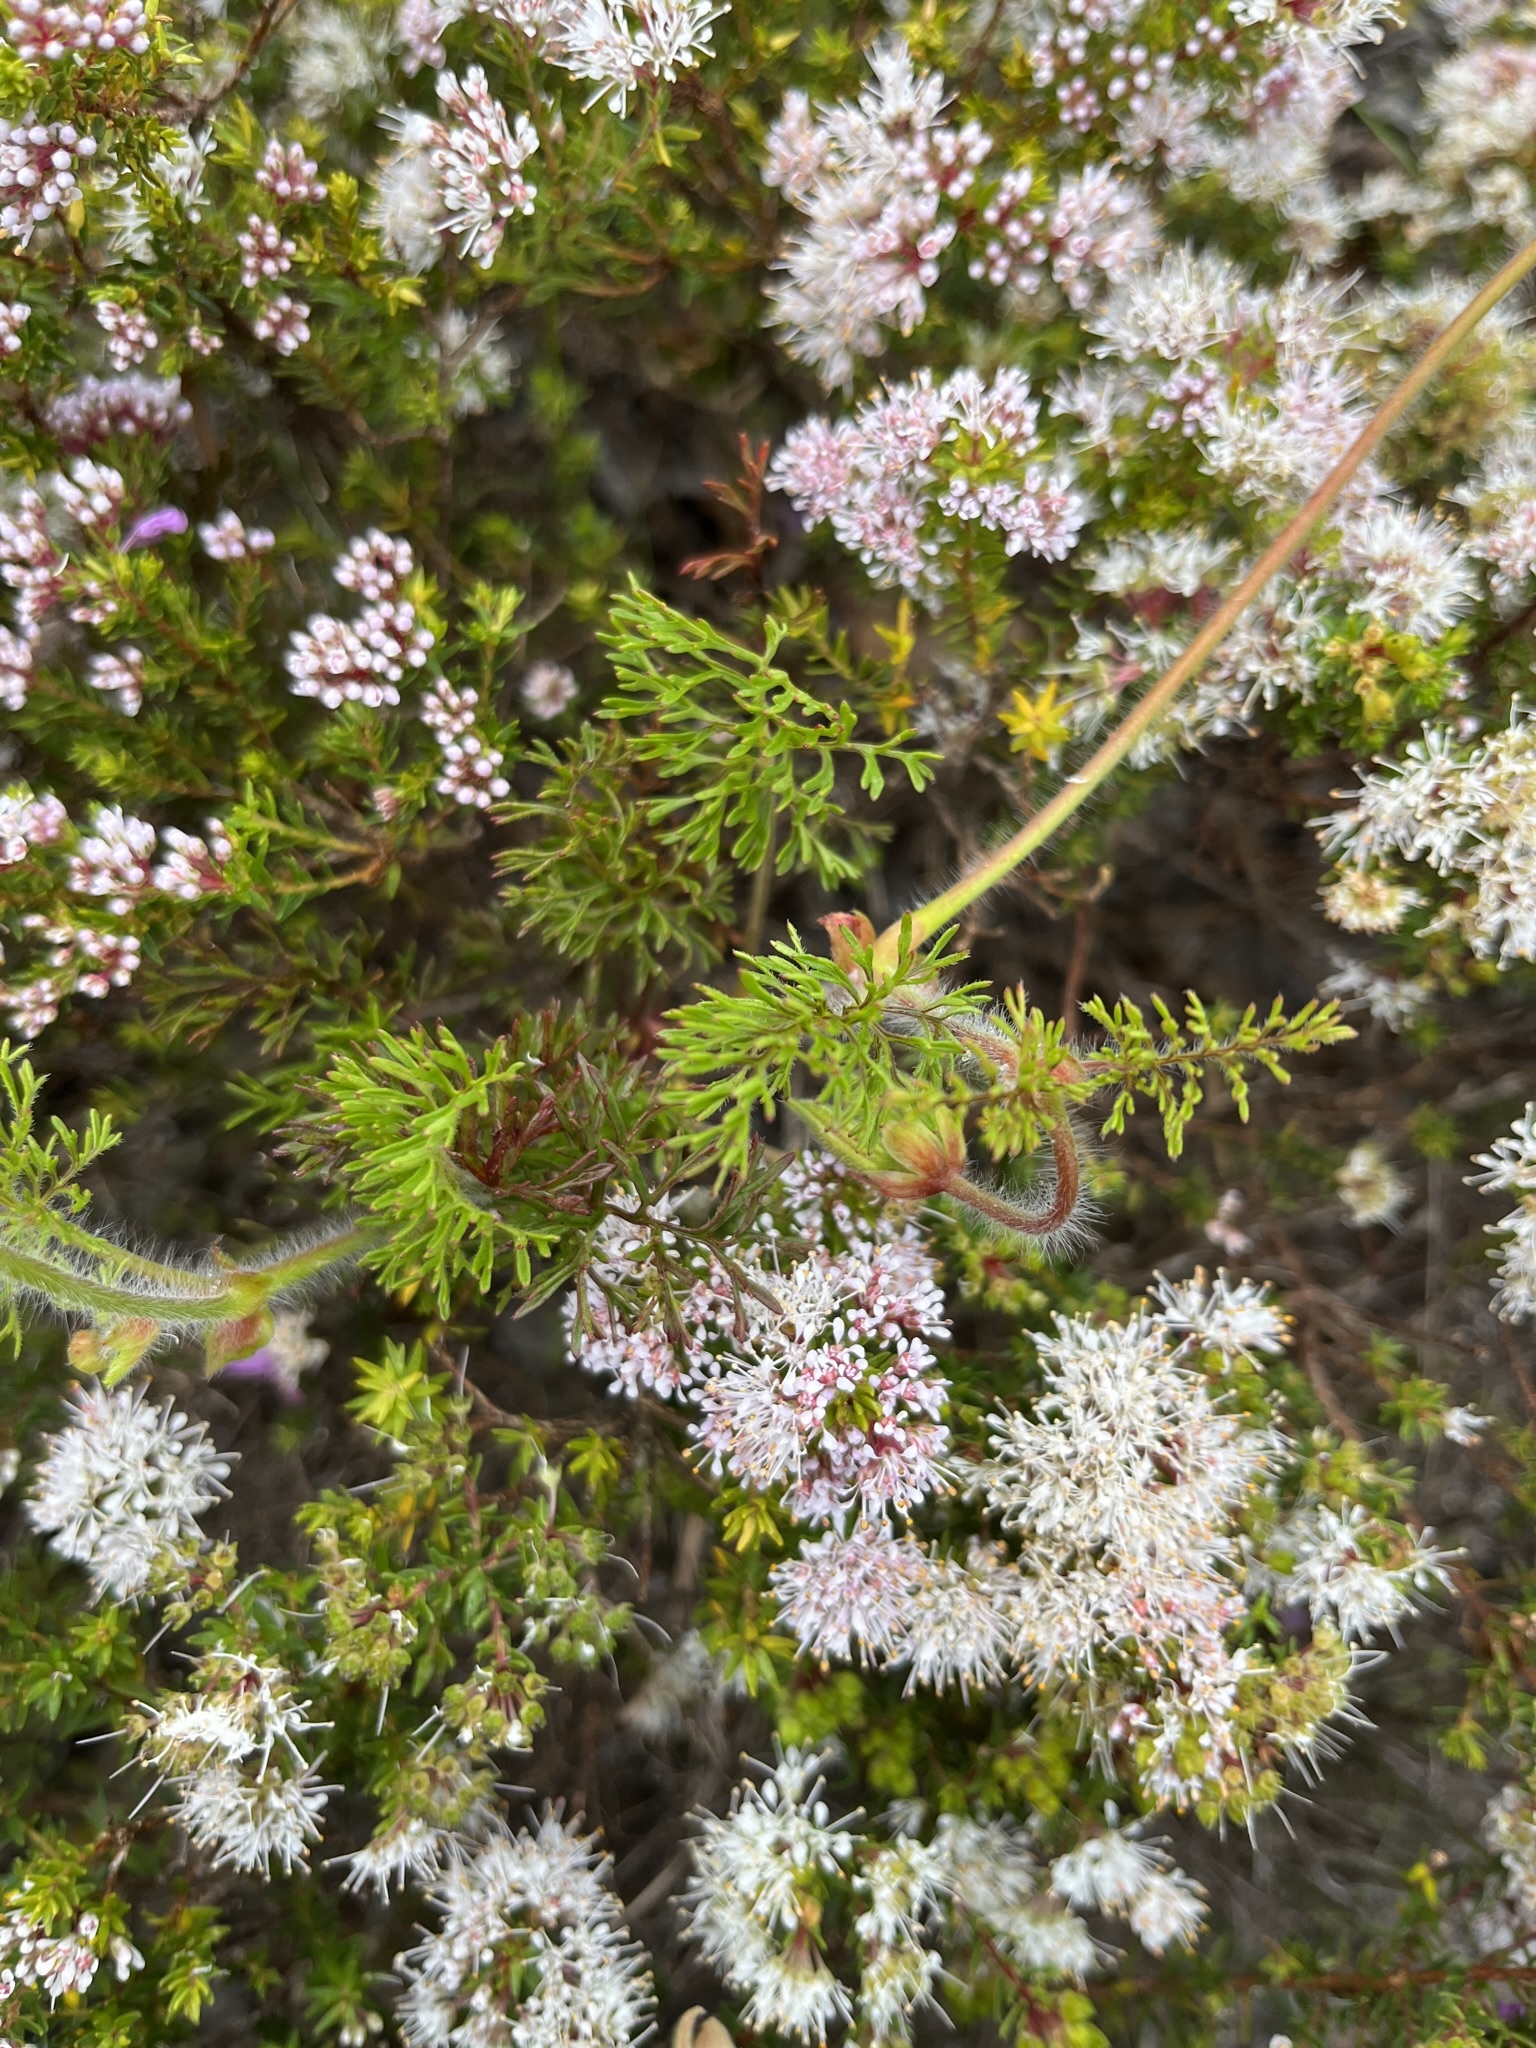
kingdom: Plantae
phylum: Tracheophyta
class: Magnoliopsida
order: Geraniales
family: Geraniaceae
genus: Pelargonium
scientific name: Pelargonium myrrhifolium
